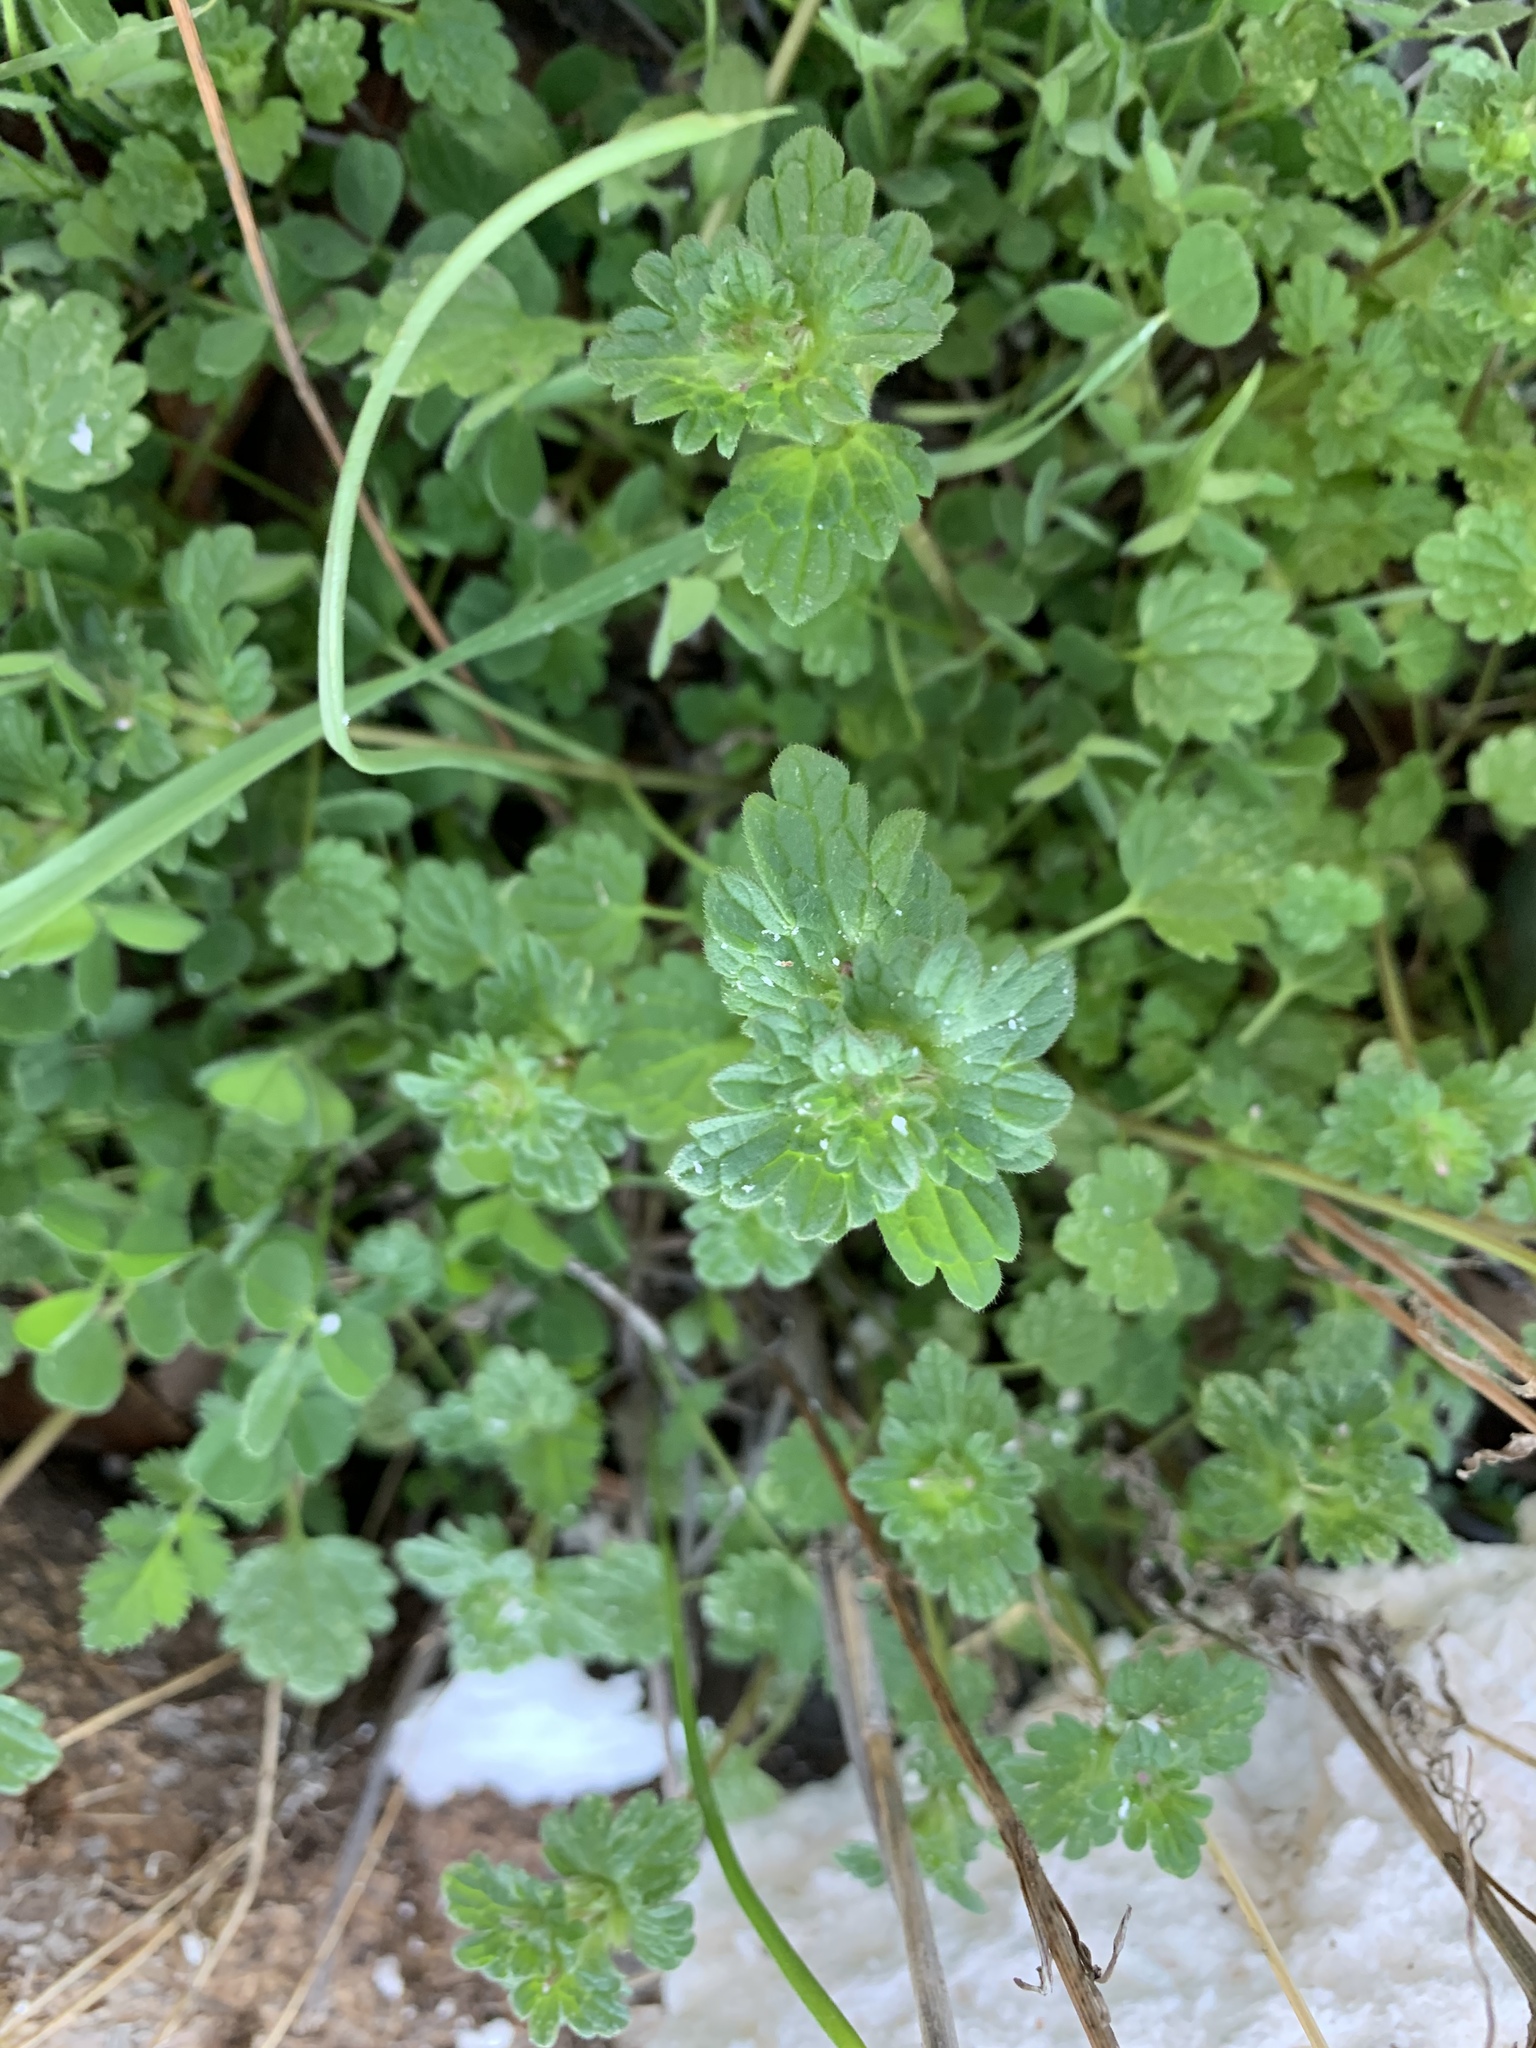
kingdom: Plantae
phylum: Tracheophyta
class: Magnoliopsida
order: Lamiales
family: Lamiaceae
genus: Lamium
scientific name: Lamium amplexicaule
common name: Henbit dead-nettle
